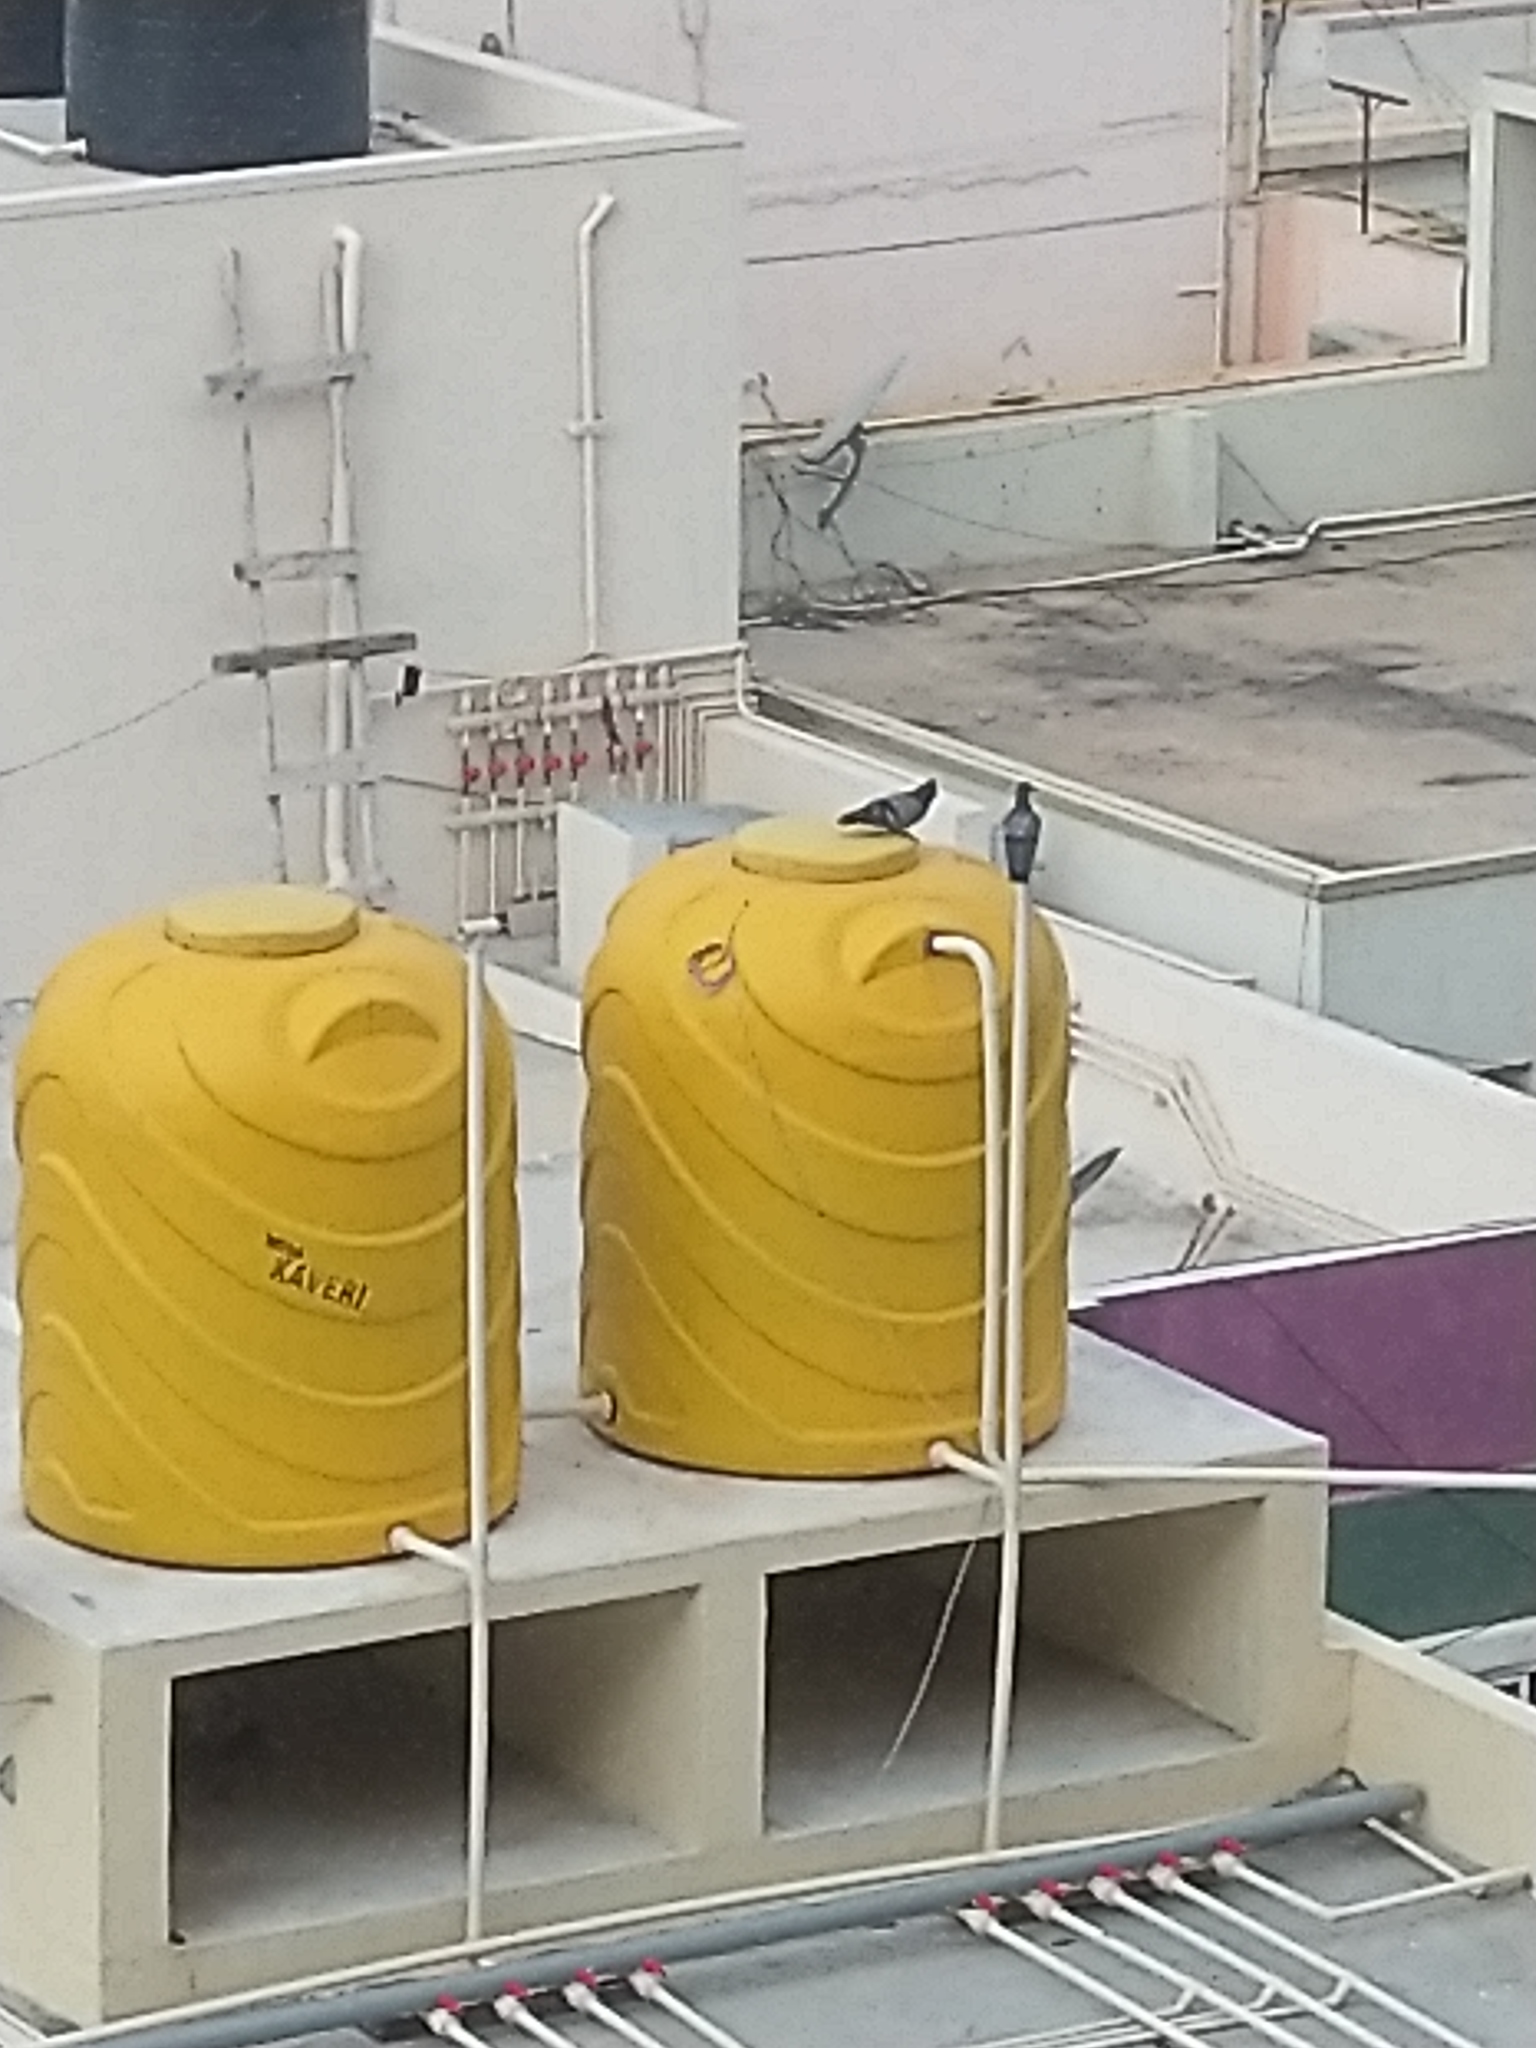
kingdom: Animalia
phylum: Chordata
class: Aves
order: Columbiformes
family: Columbidae
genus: Columba
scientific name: Columba livia
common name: Rock pigeon
